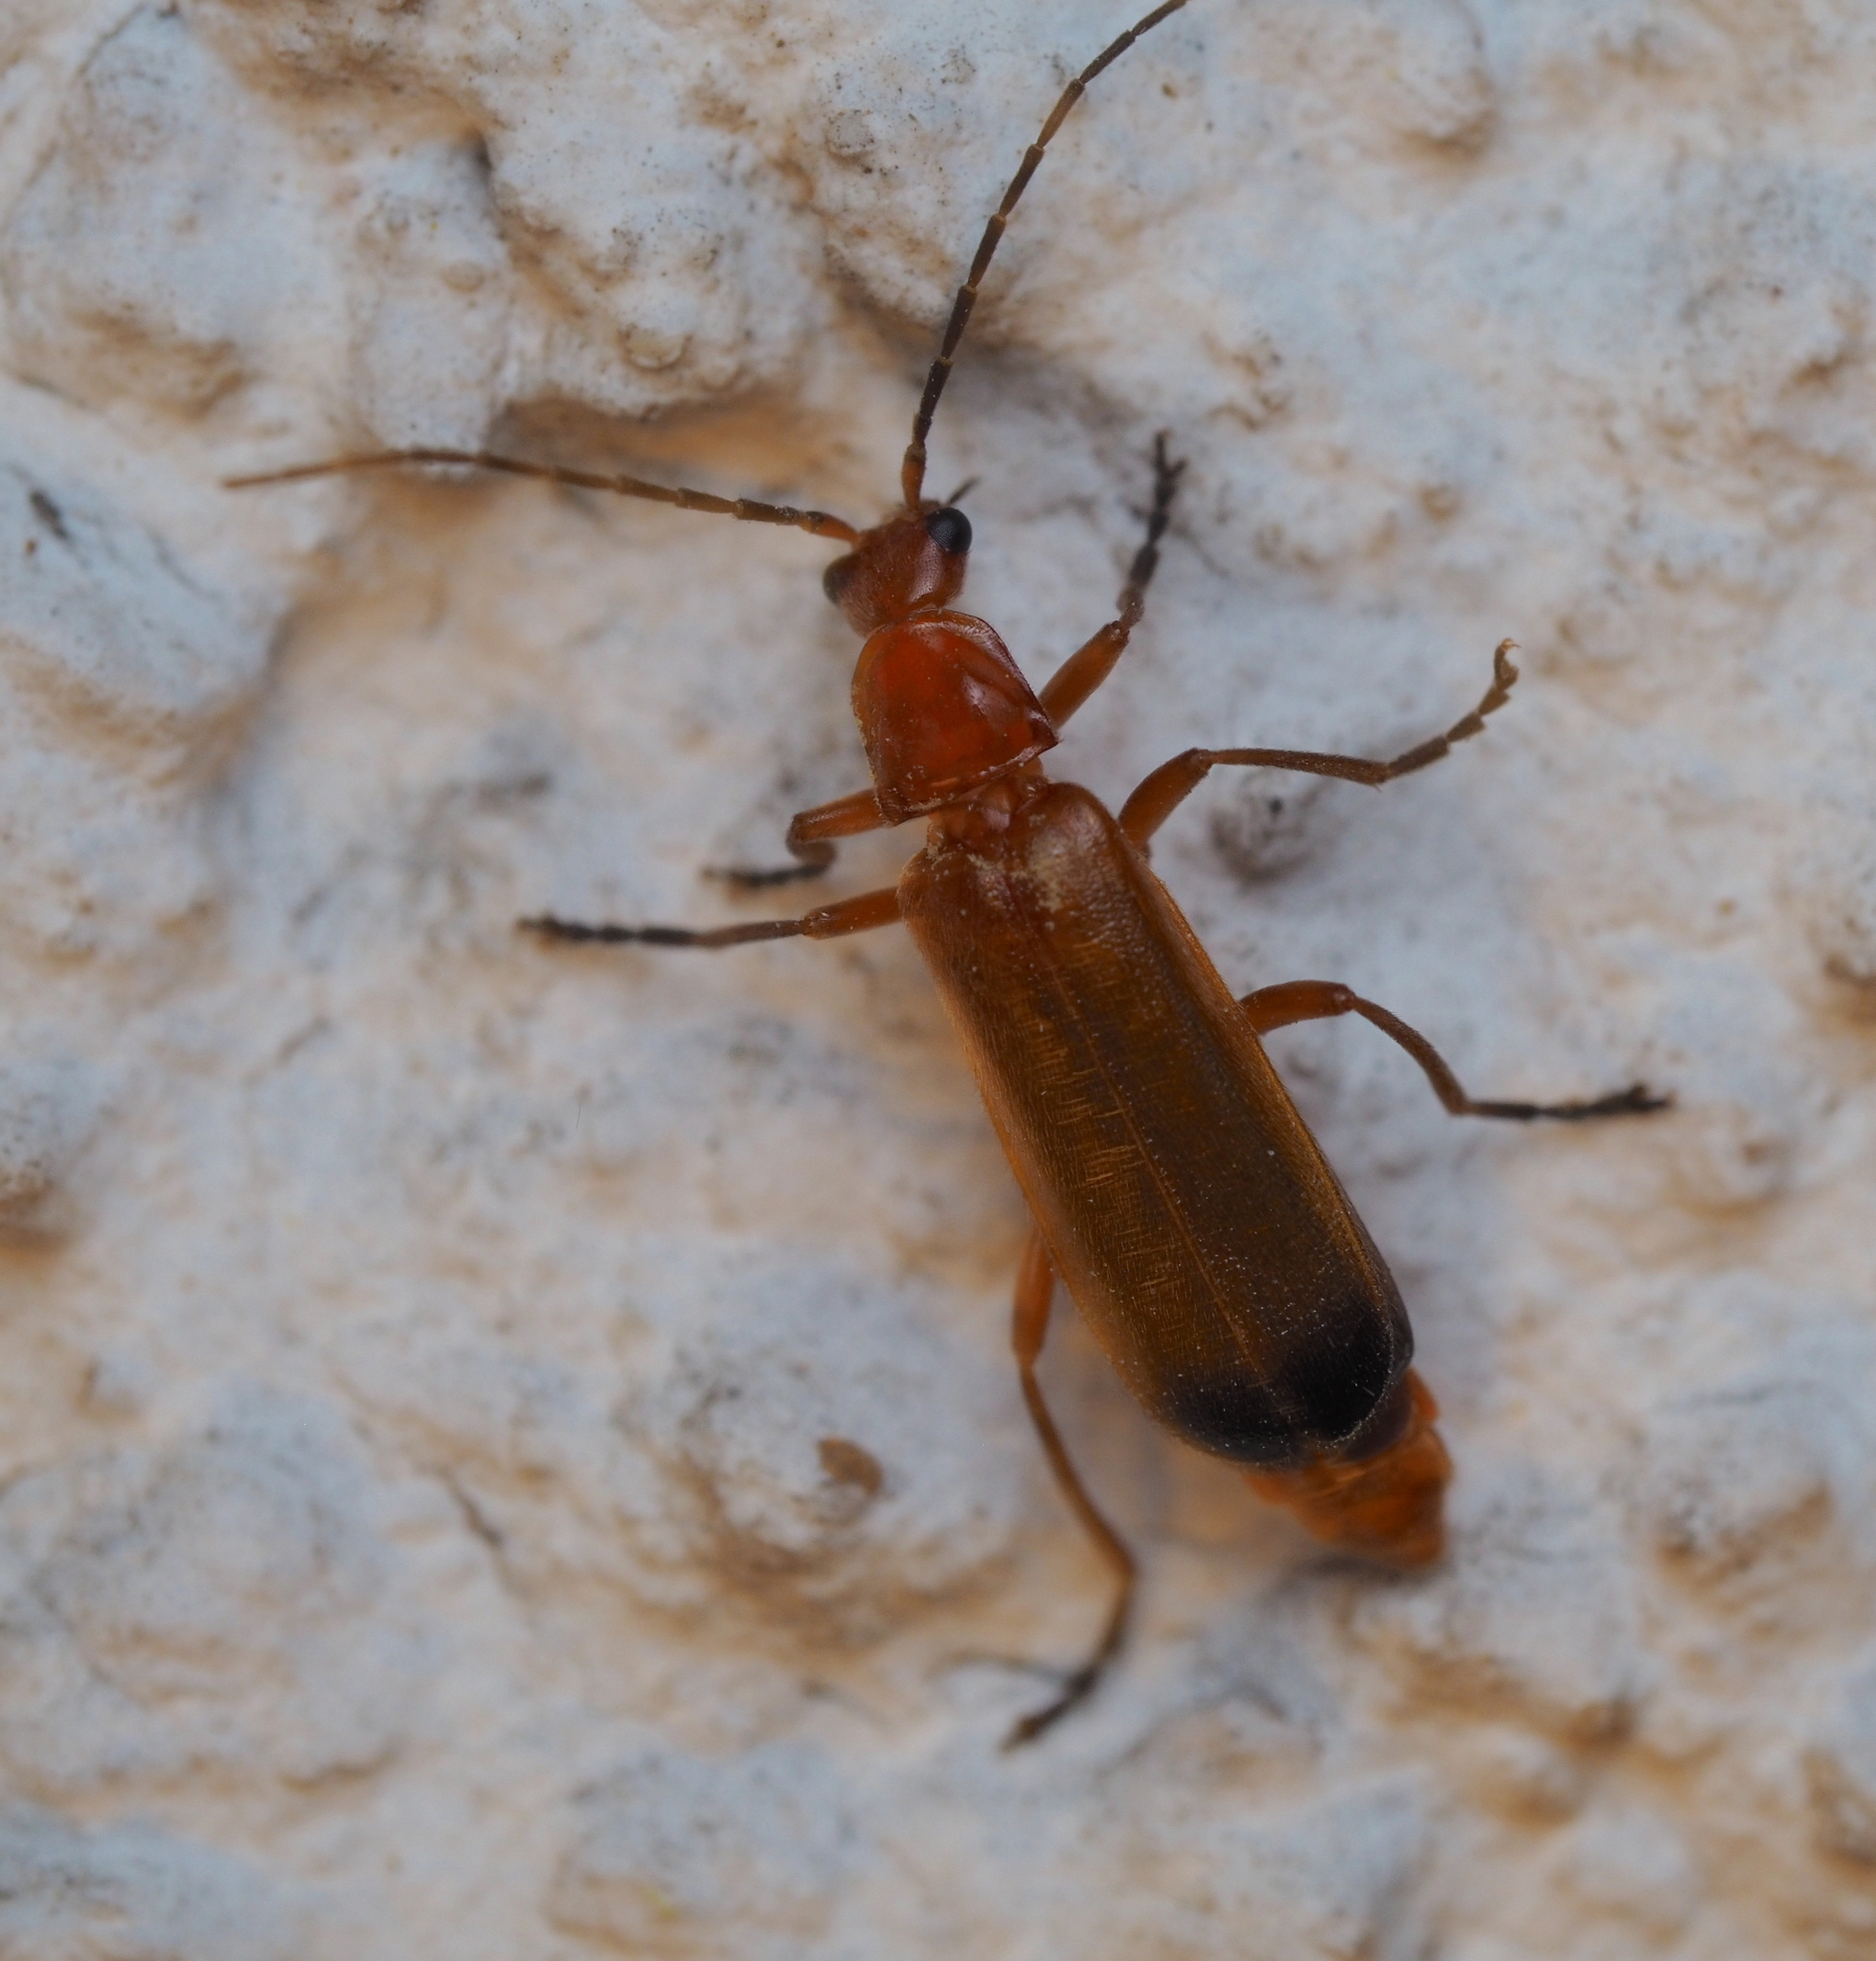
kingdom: Animalia
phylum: Arthropoda
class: Insecta
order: Coleoptera
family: Cantharidae
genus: Rhagonycha
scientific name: Rhagonycha fulva
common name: Common red soldier beetle
